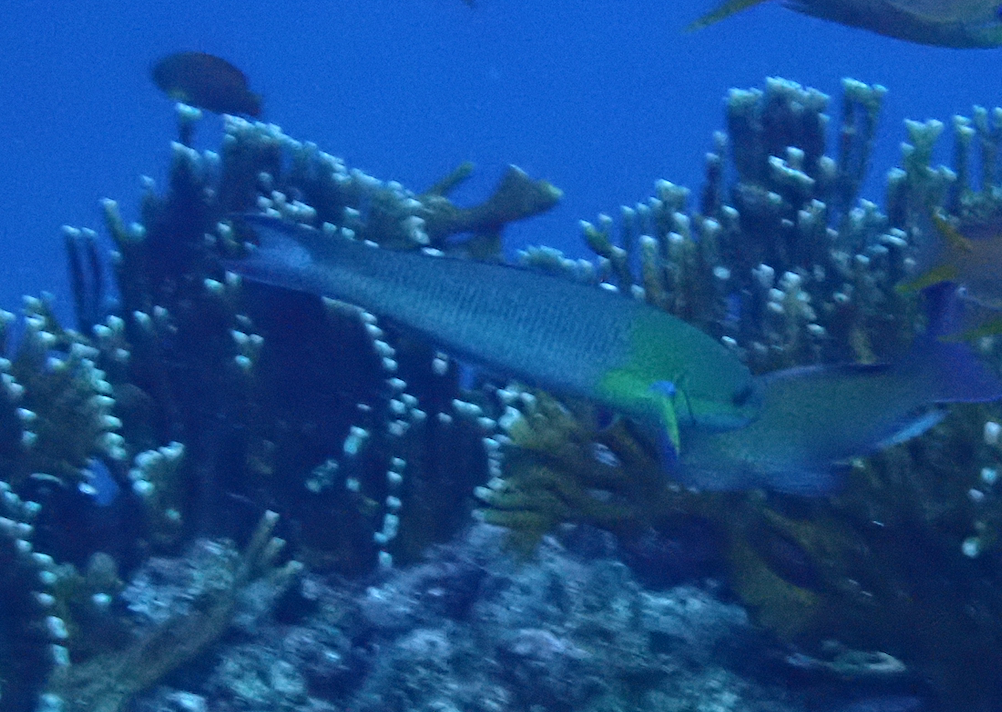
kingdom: Animalia
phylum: Chordata
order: Perciformes
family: Labridae
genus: Thalassoma
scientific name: Thalassoma amblycephalum
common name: Bluehead wrasse
